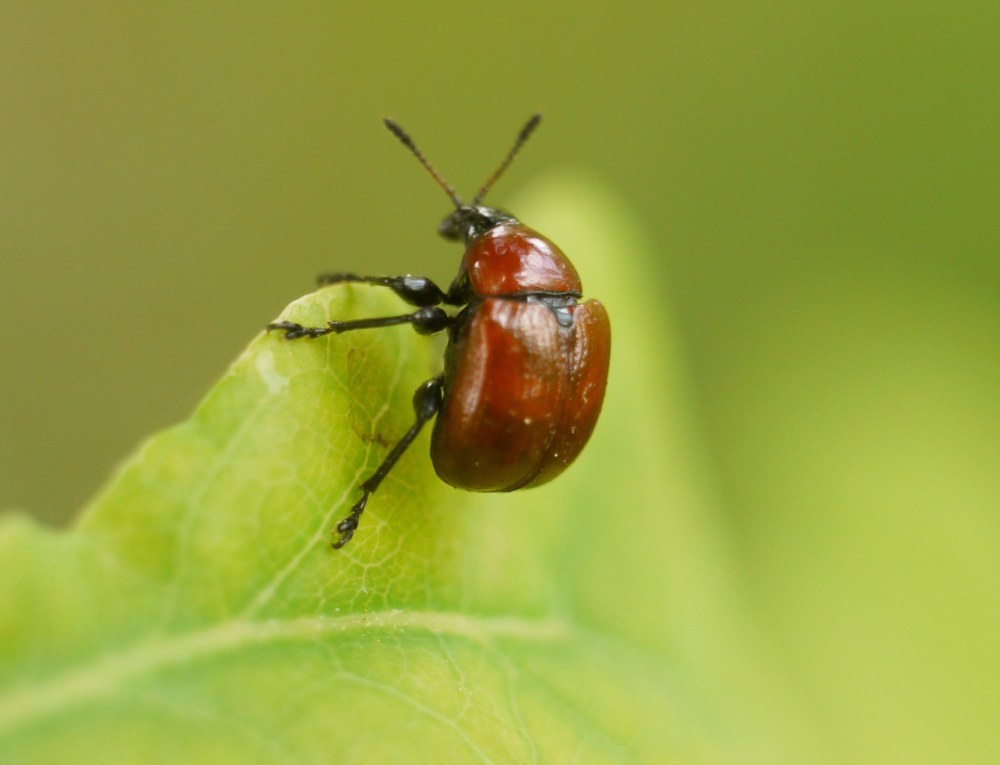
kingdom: Animalia
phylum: Arthropoda
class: Insecta
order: Coleoptera
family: Attelabidae
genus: Attelabus
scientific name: Attelabus nitens
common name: Oak leaf-roller
